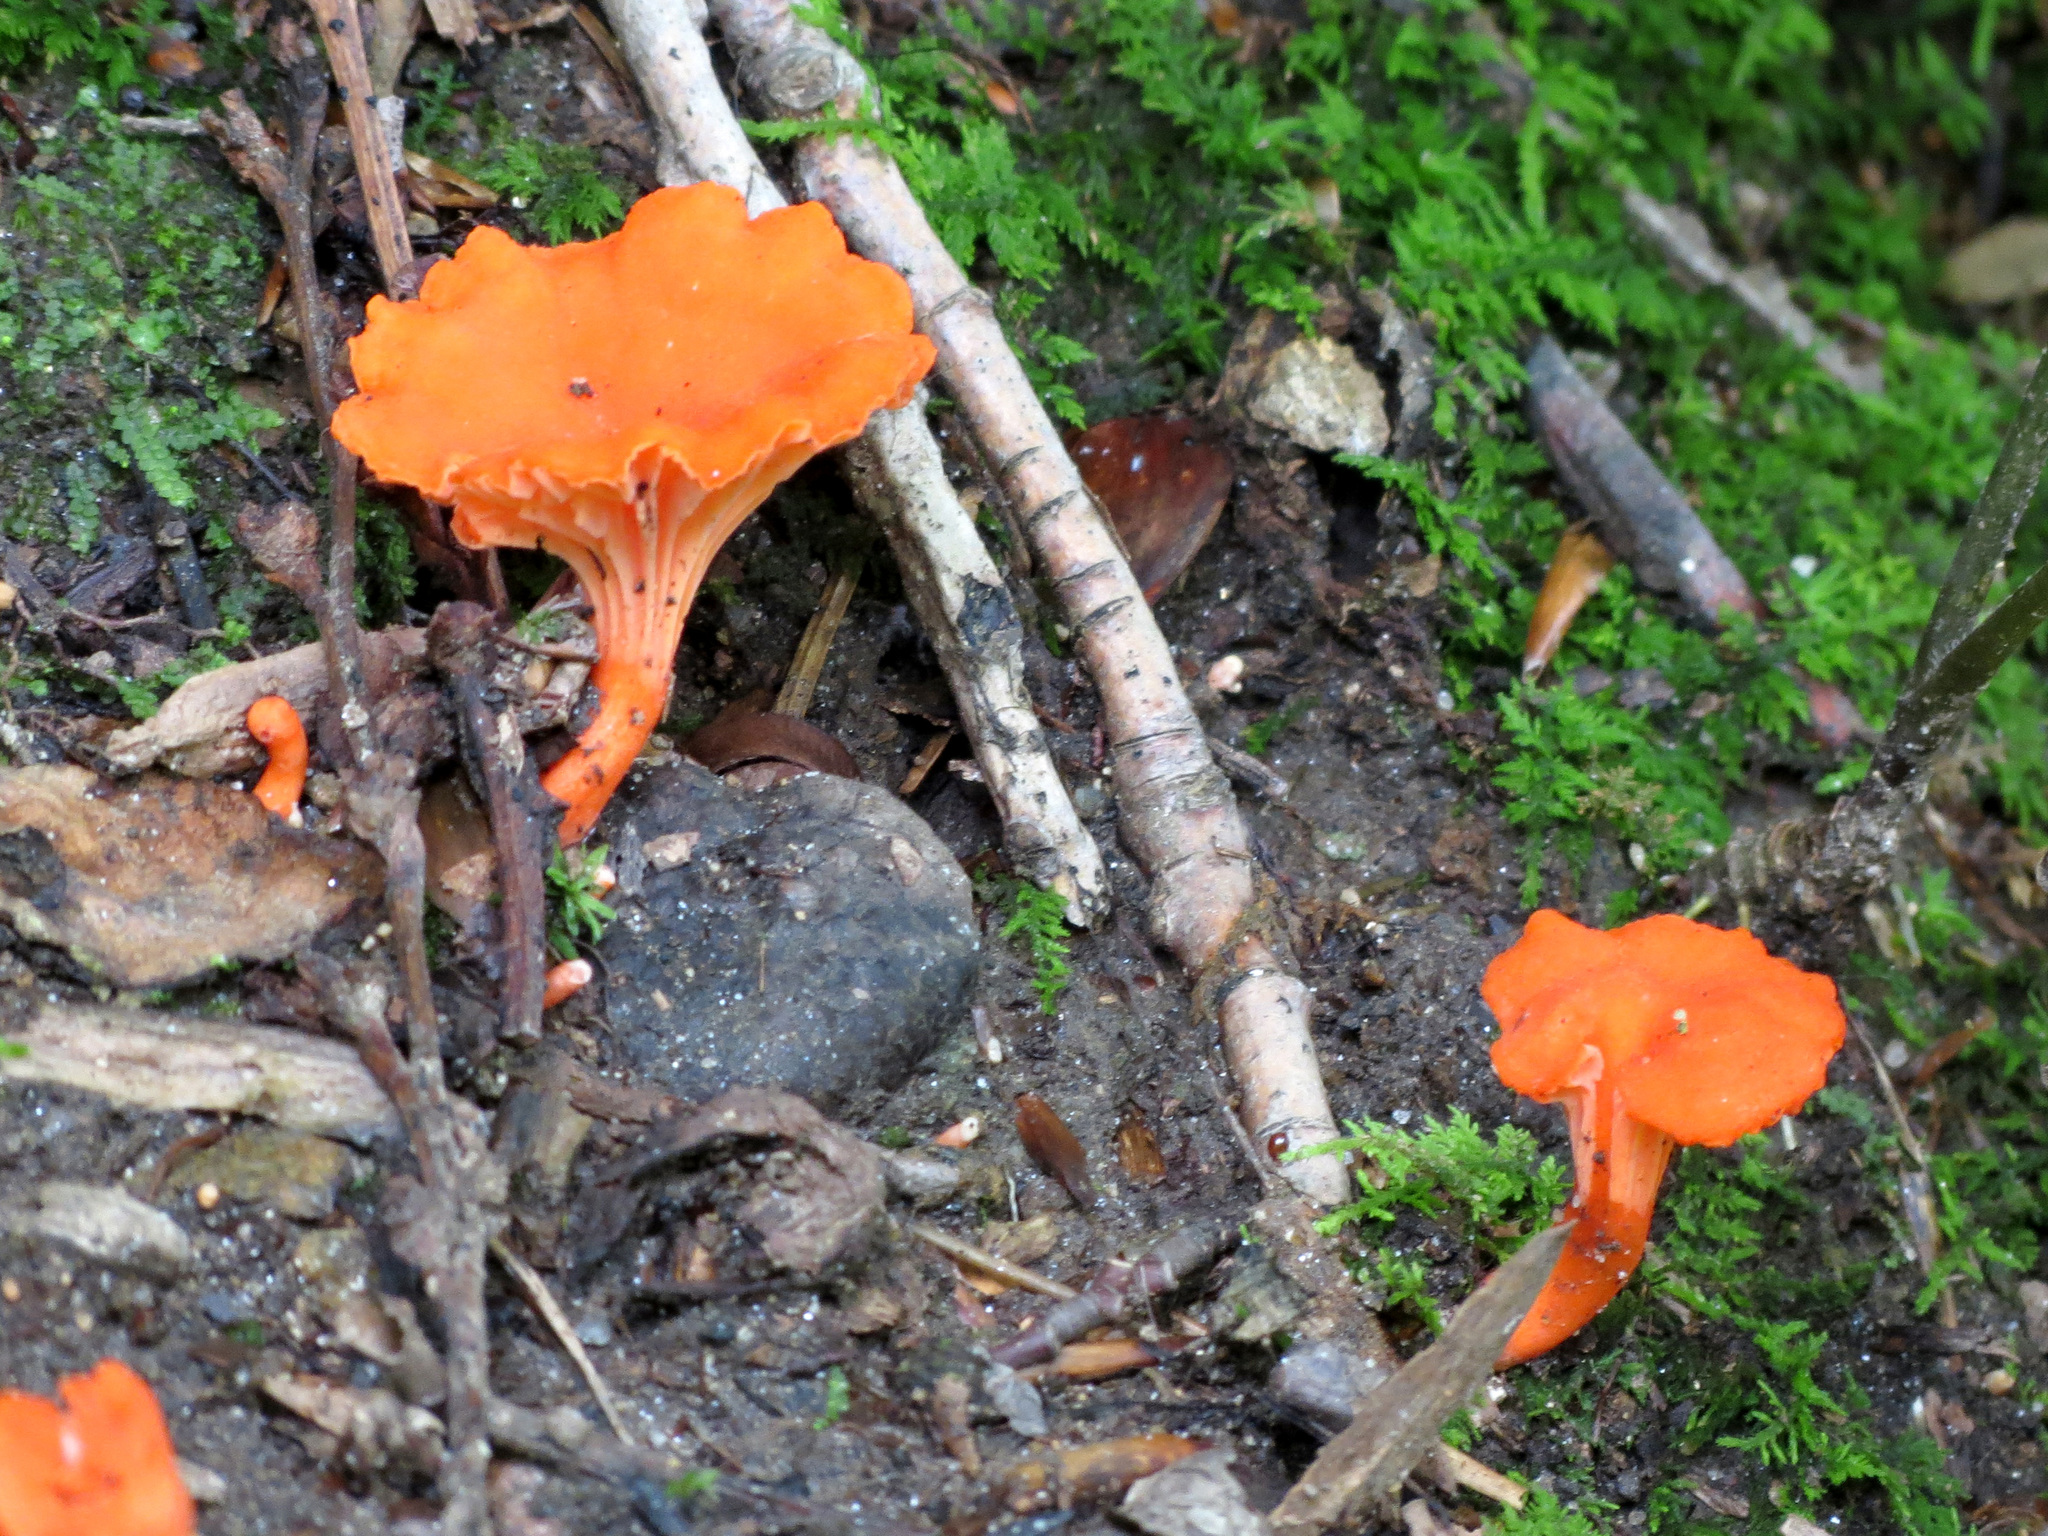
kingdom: Fungi
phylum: Basidiomycota
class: Agaricomycetes
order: Cantharellales
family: Hydnaceae
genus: Cantharellus
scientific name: Cantharellus cinnabarinus
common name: Cinnabar chanterelle
